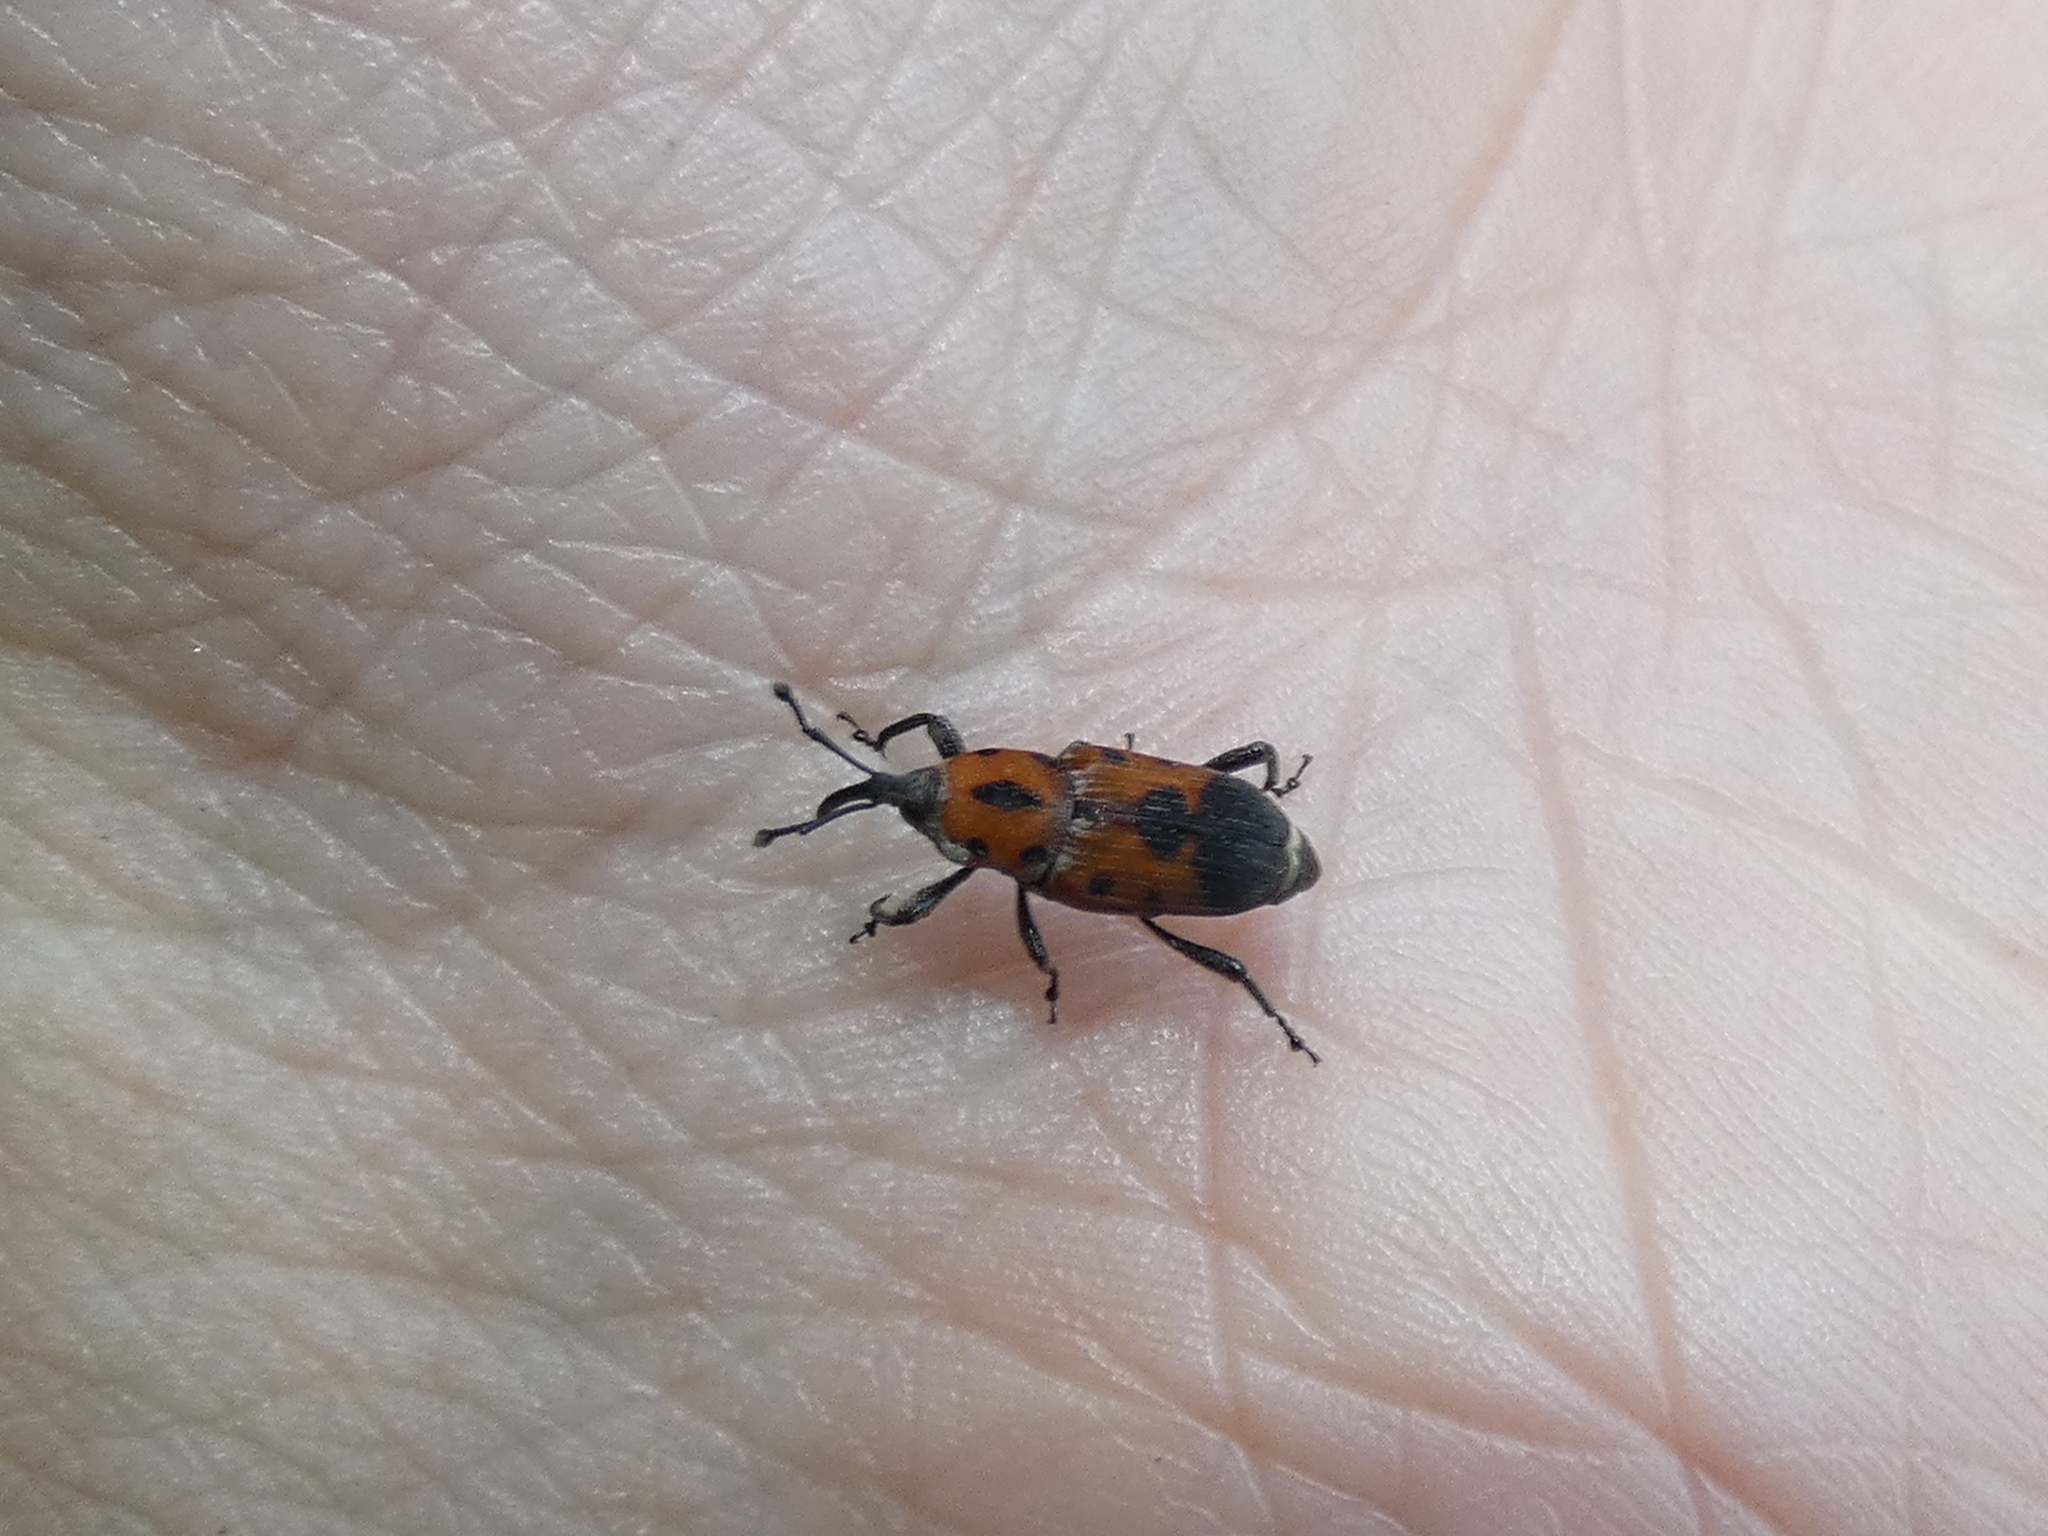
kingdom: Animalia
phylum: Arthropoda
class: Insecta
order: Coleoptera
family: Dryophthoridae
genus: Rhodobaenus
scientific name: Rhodobaenus quinquepunctatus
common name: Cocklebur weevil
